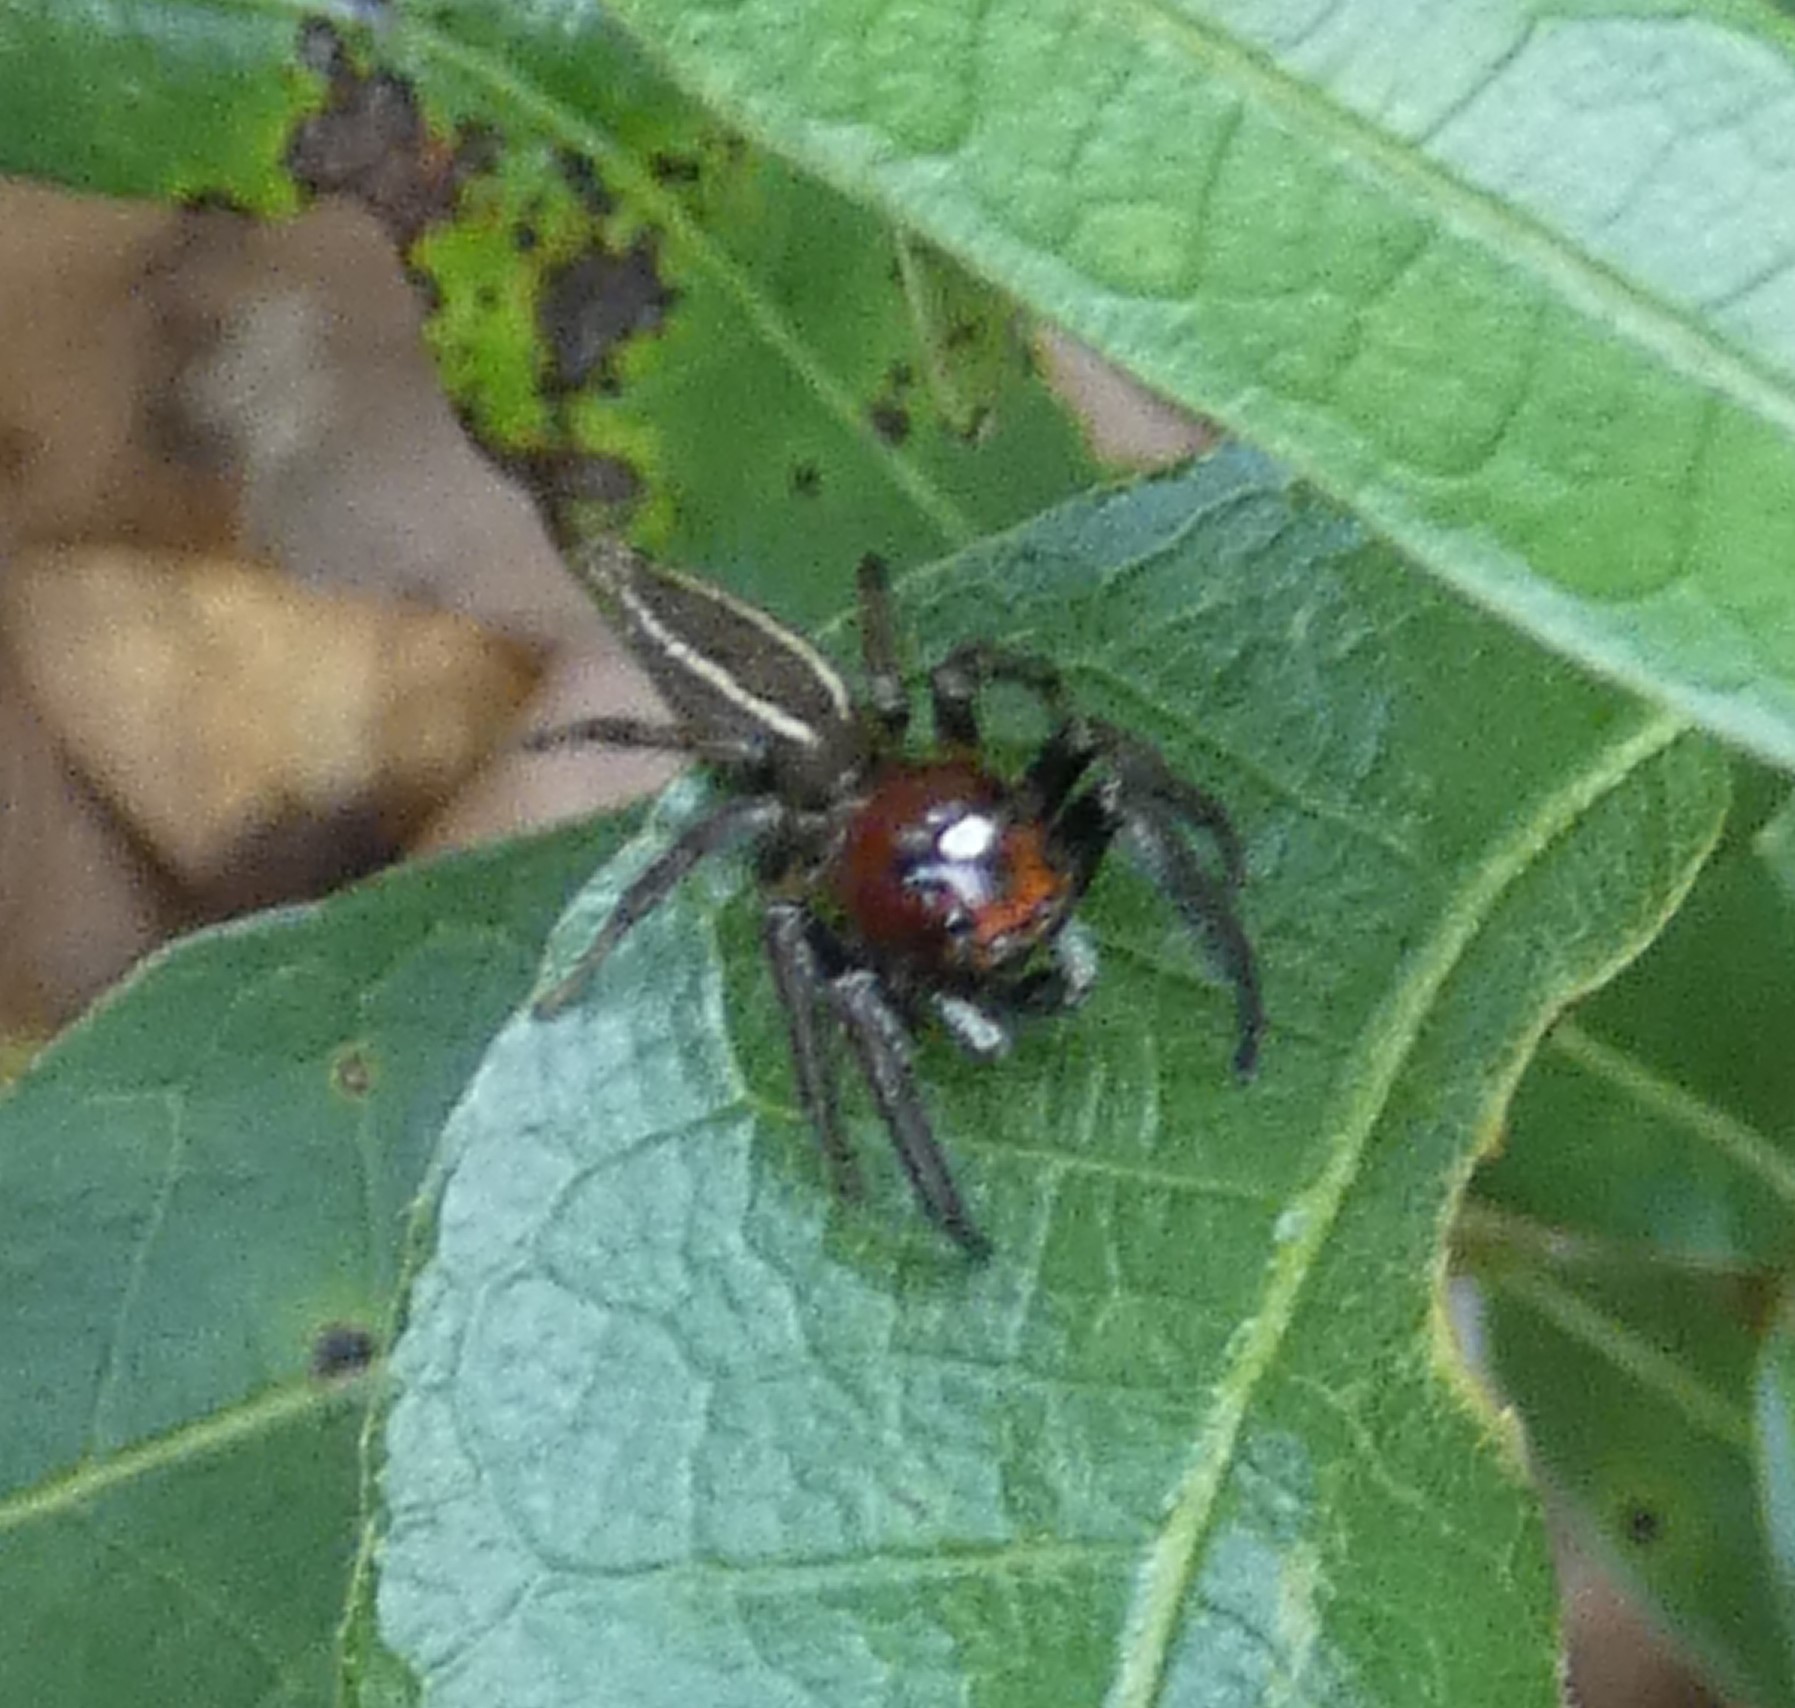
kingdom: Animalia
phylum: Arthropoda
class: Arachnida
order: Araneae
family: Salticidae
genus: Colonus
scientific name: Colonus sylvanus
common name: Jumping spiders
